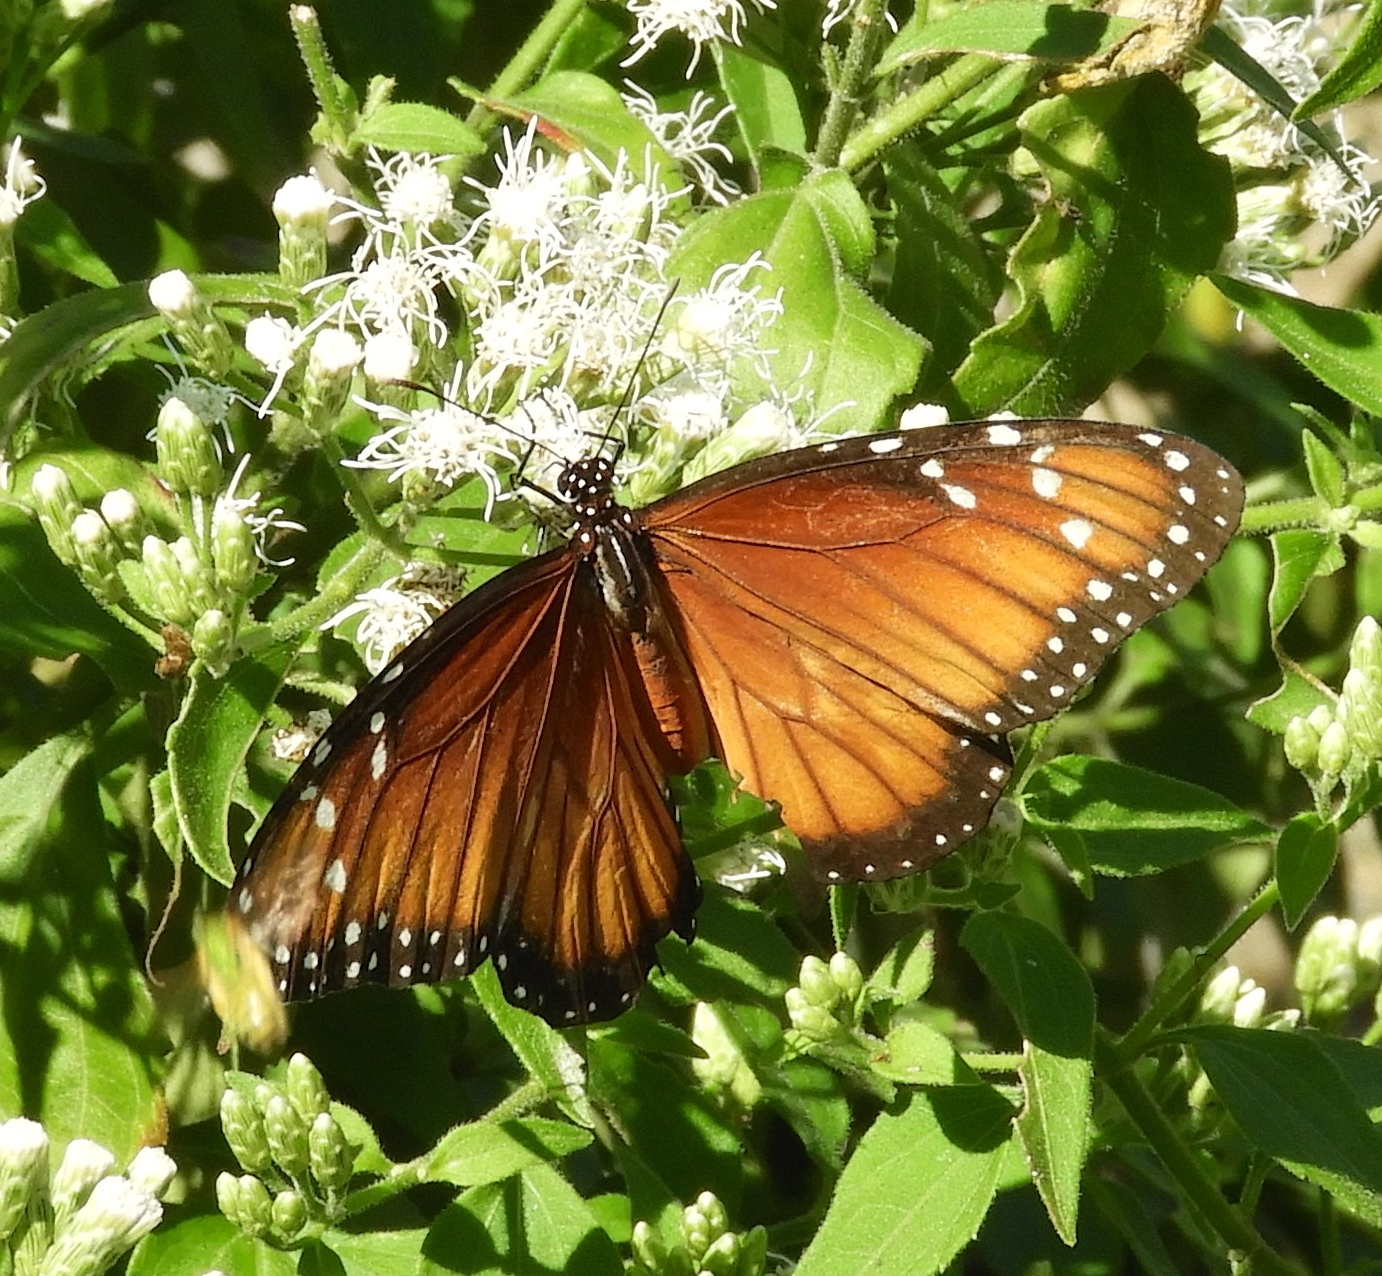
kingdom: Animalia
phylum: Arthropoda
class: Insecta
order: Lepidoptera
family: Nymphalidae
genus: Danaus
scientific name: Danaus eresimus
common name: Soldier
